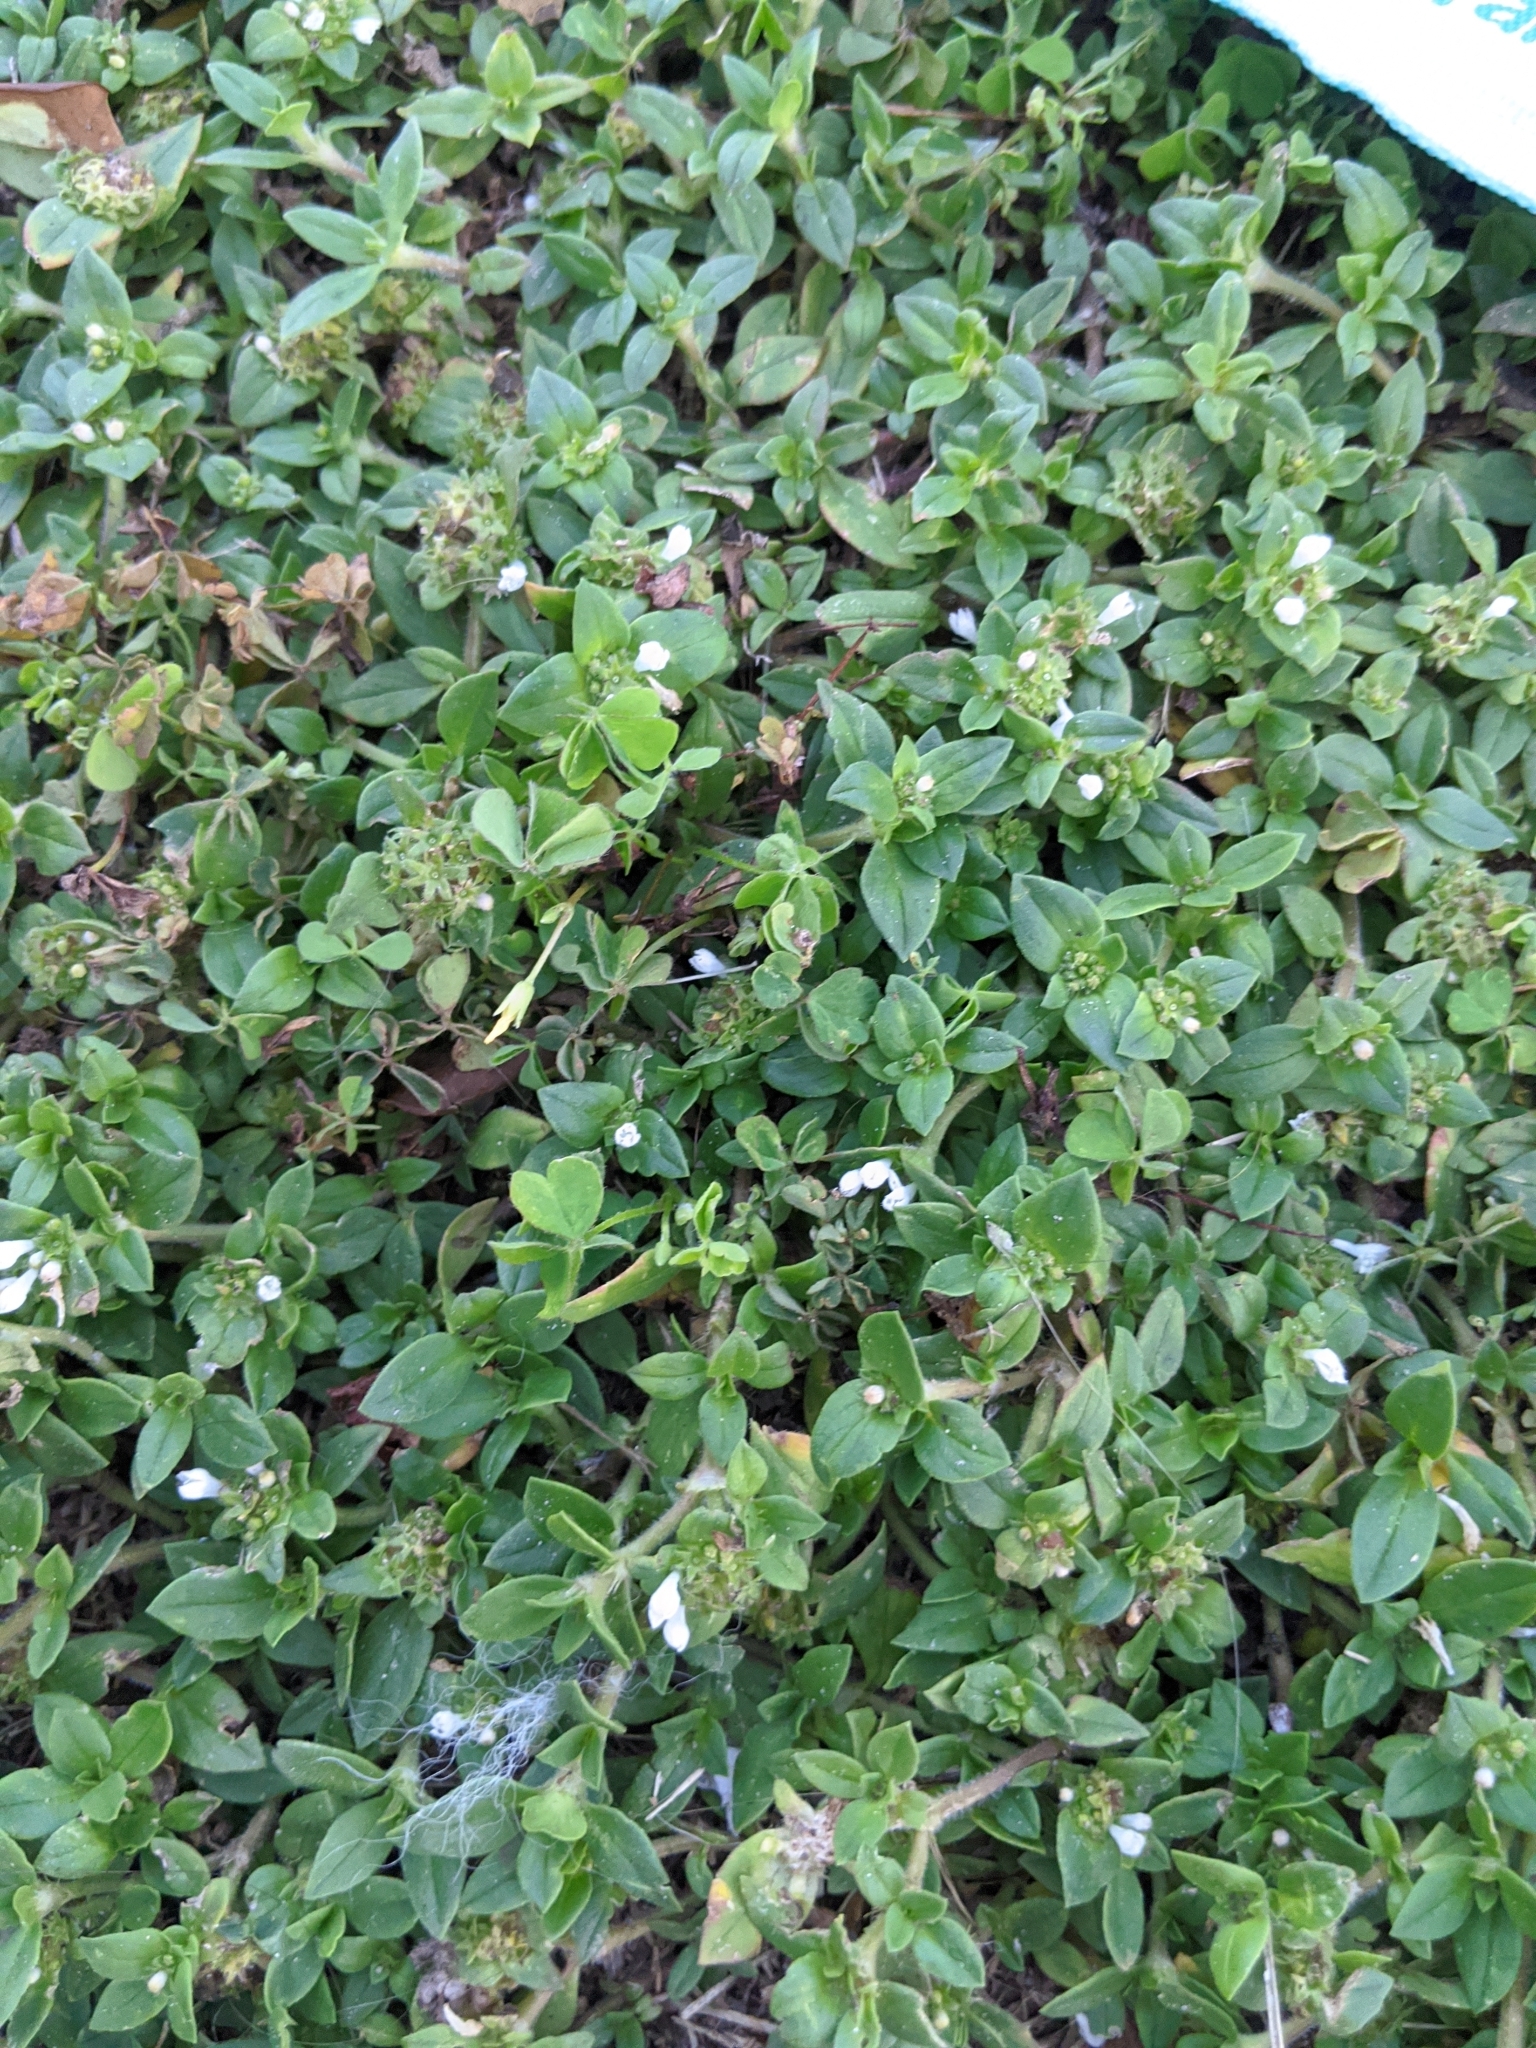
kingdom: Plantae
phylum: Tracheophyta
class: Magnoliopsida
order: Gentianales
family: Rubiaceae
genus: Richardia
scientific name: Richardia brasiliensis
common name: Tropical mexican clover
